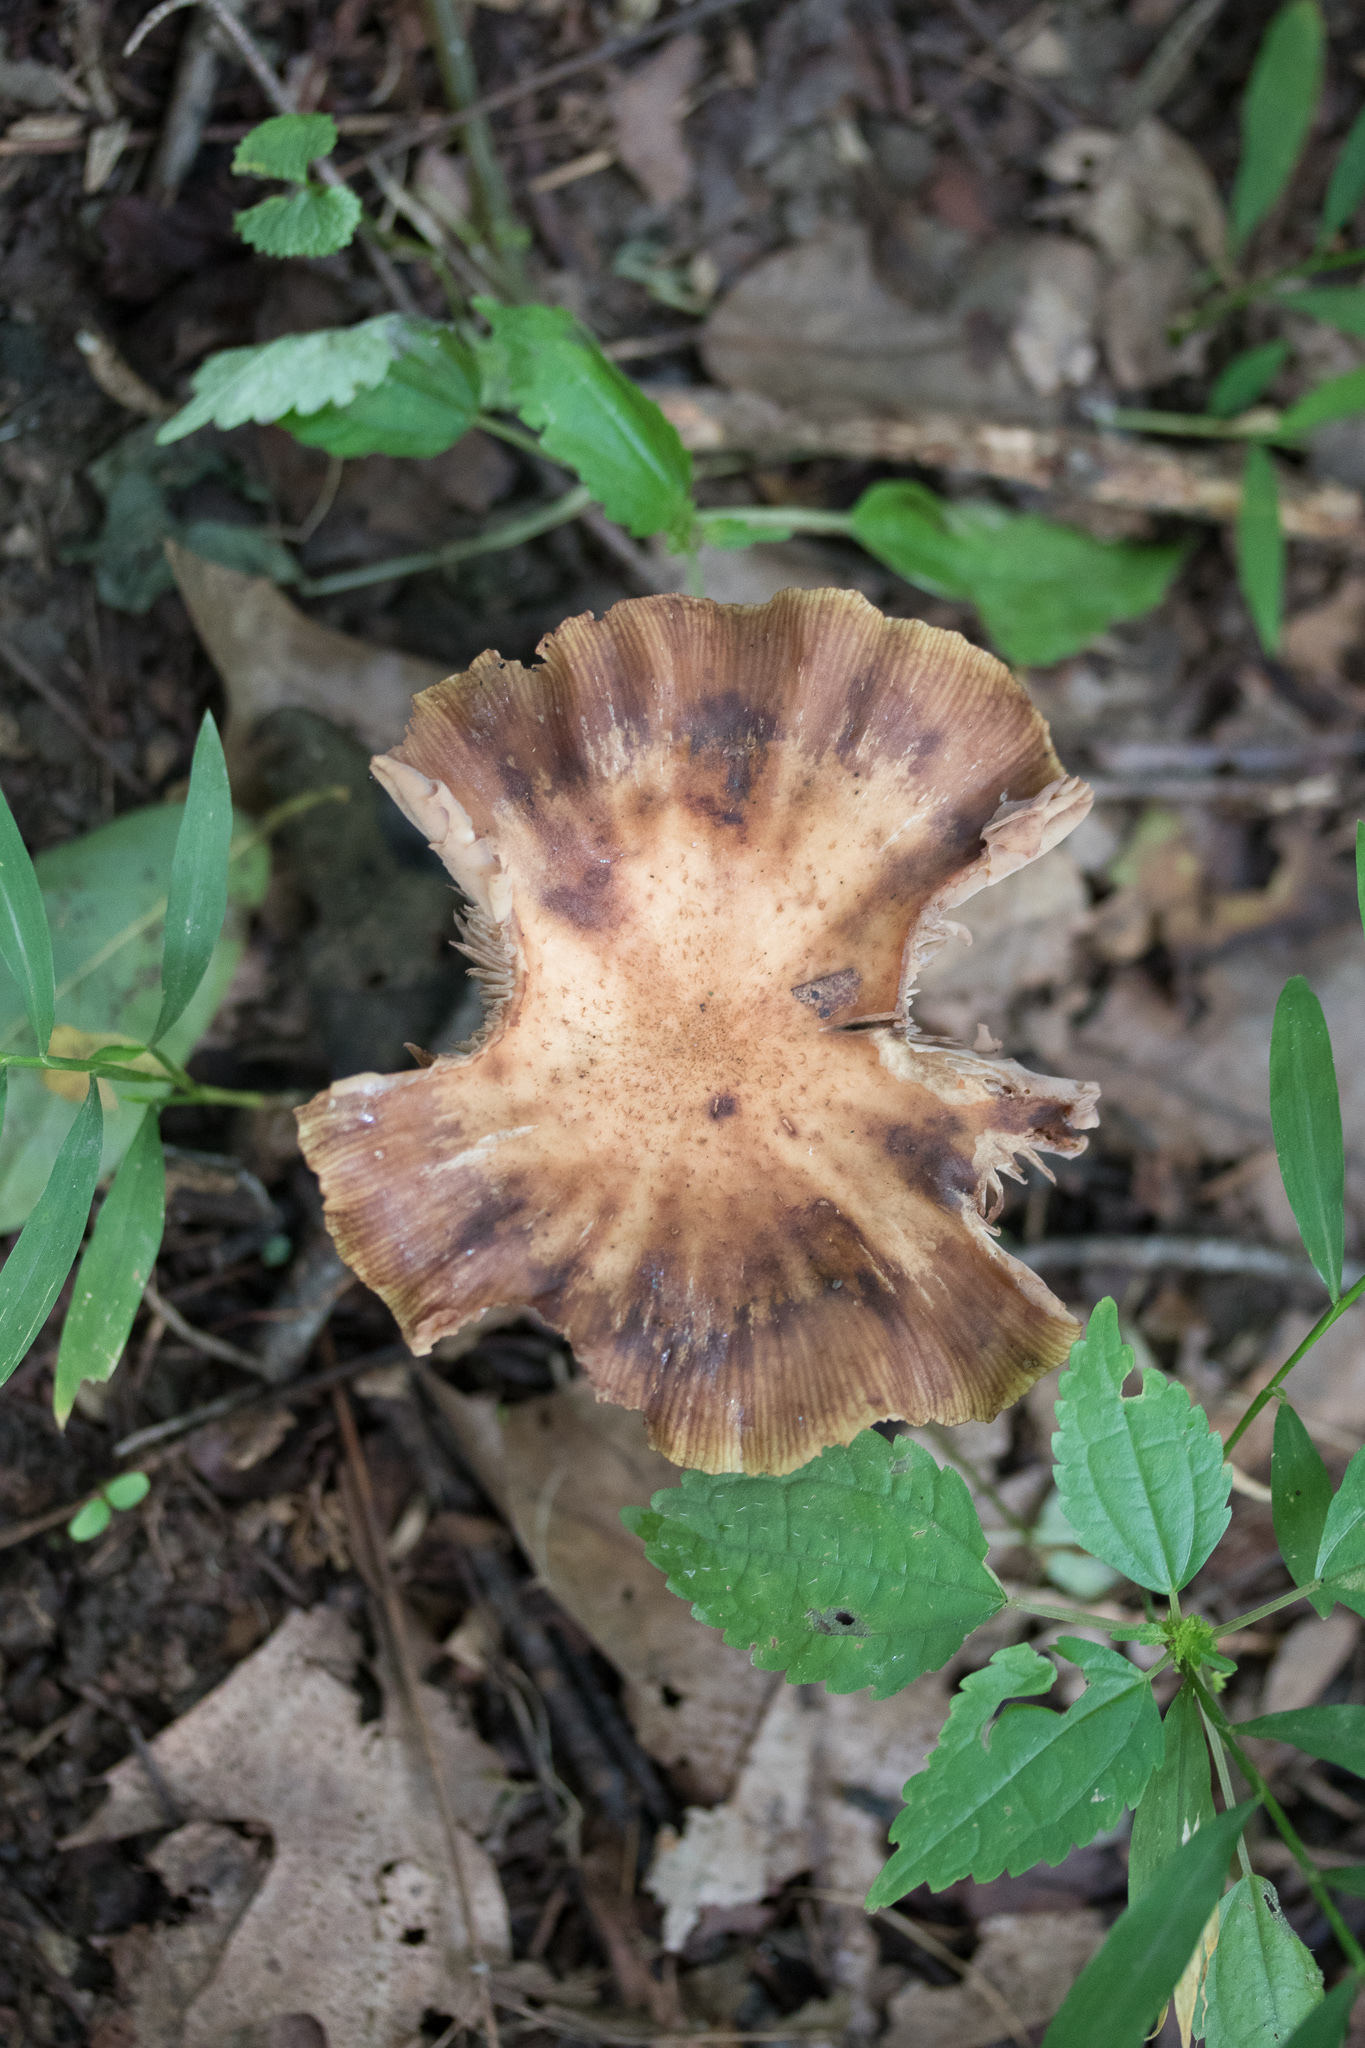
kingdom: Fungi
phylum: Basidiomycota
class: Agaricomycetes
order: Agaricales
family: Physalacriaceae
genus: Armillaria
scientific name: Armillaria gallica
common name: Bulbous honey fungus
